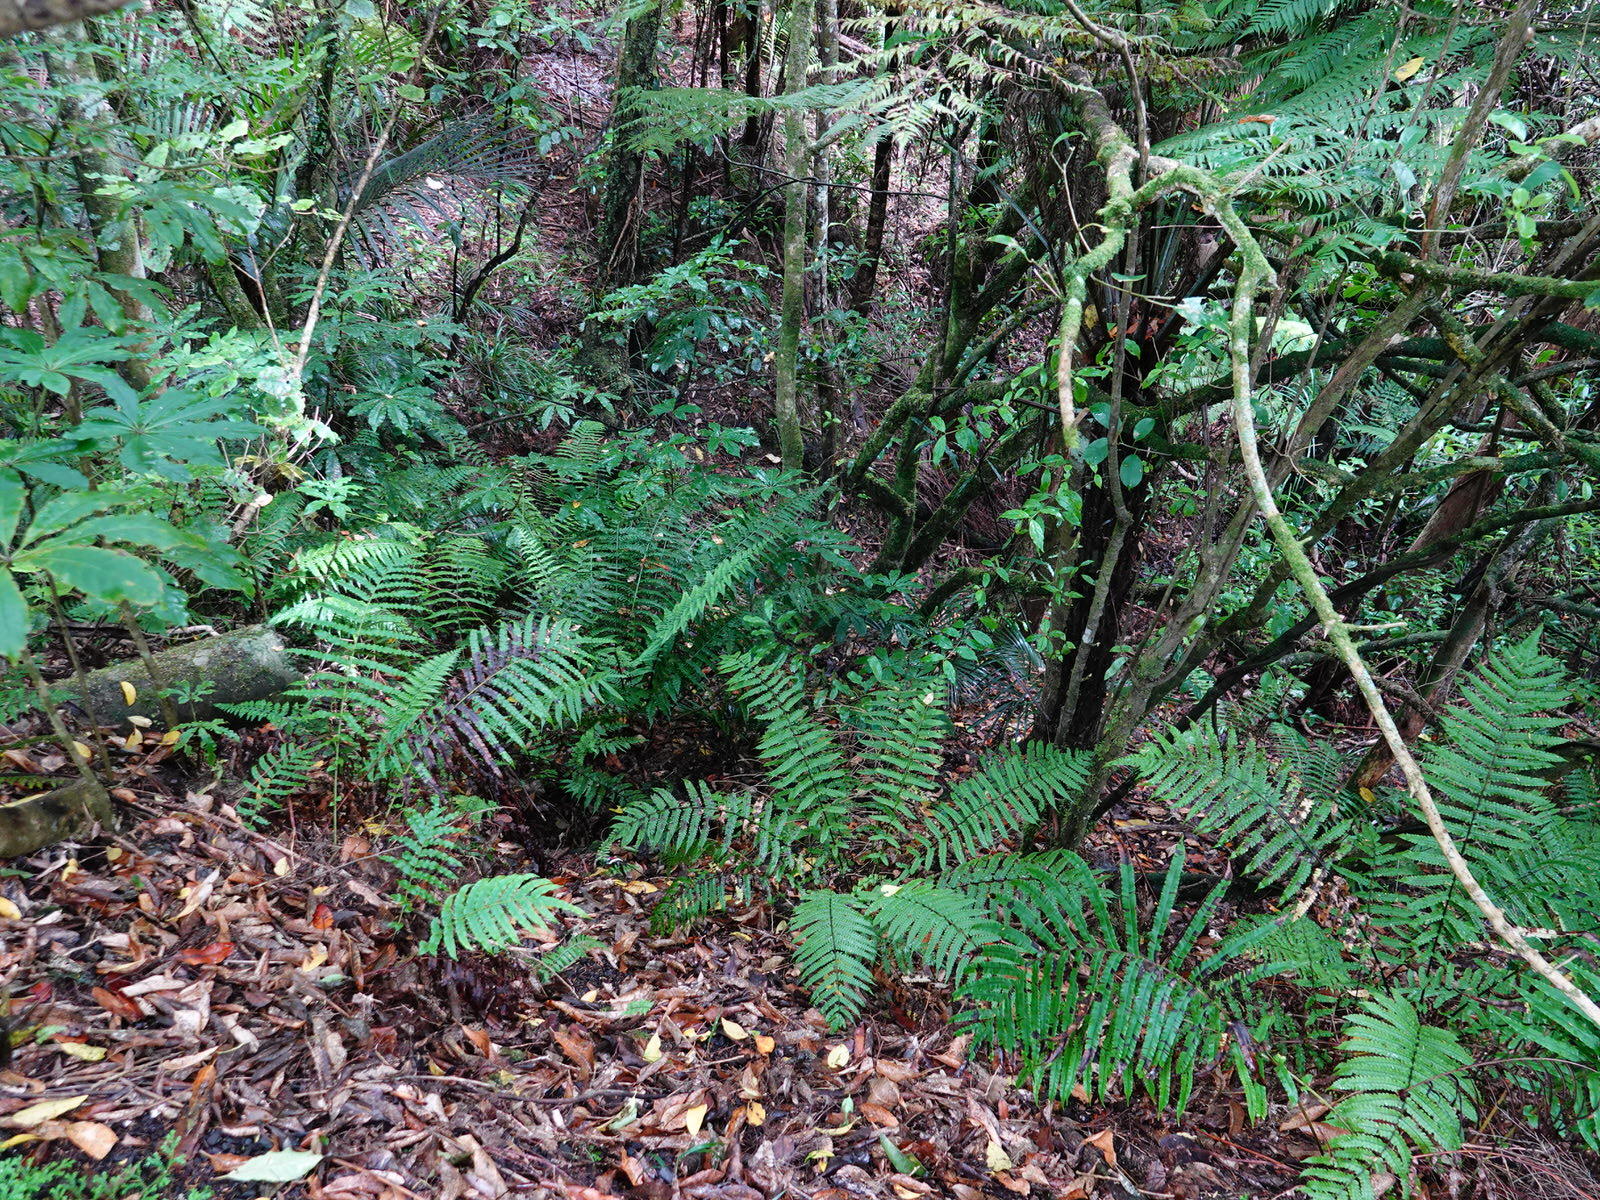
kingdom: Plantae
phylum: Tracheophyta
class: Polypodiopsida
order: Polypodiales
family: Thelypteridaceae
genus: Pakau
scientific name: Pakau pennigera
